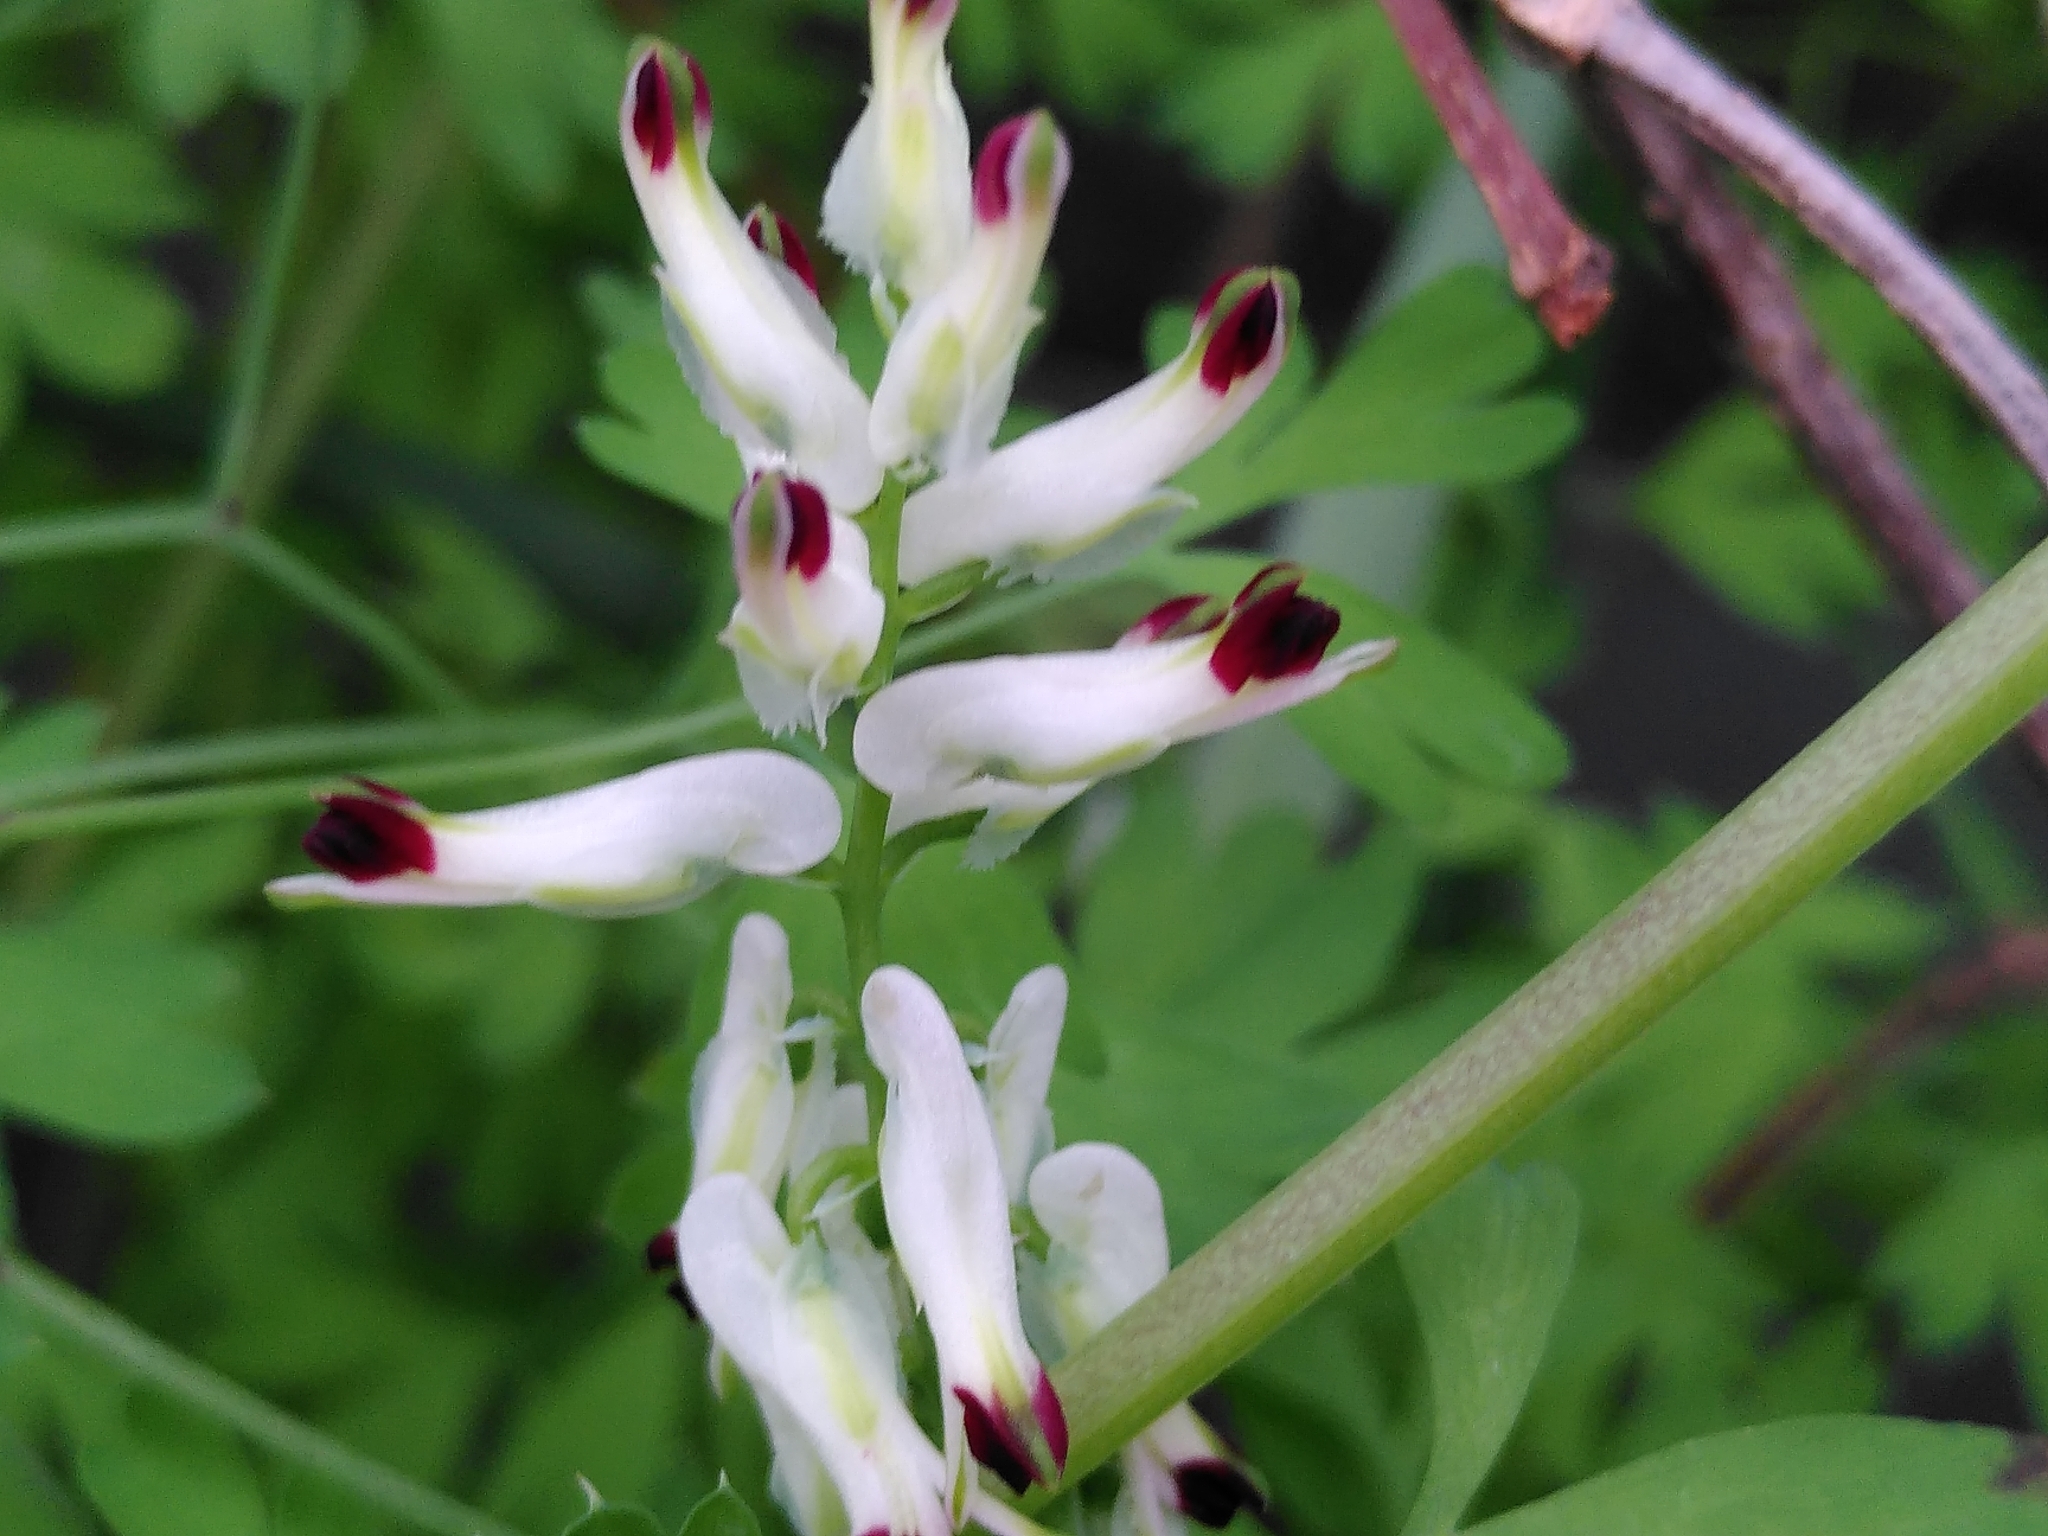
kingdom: Plantae
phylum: Tracheophyta
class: Magnoliopsida
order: Ranunculales
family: Papaveraceae
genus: Fumaria
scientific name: Fumaria capreolata
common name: White ramping-fumitory
